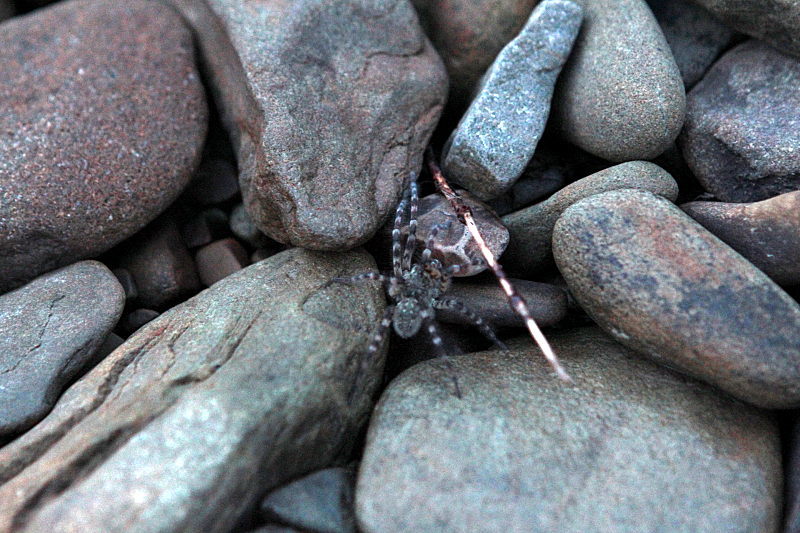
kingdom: Animalia
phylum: Arthropoda
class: Arachnida
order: Araneae
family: Lycosidae
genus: Arctosa
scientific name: Arctosa cinerea
